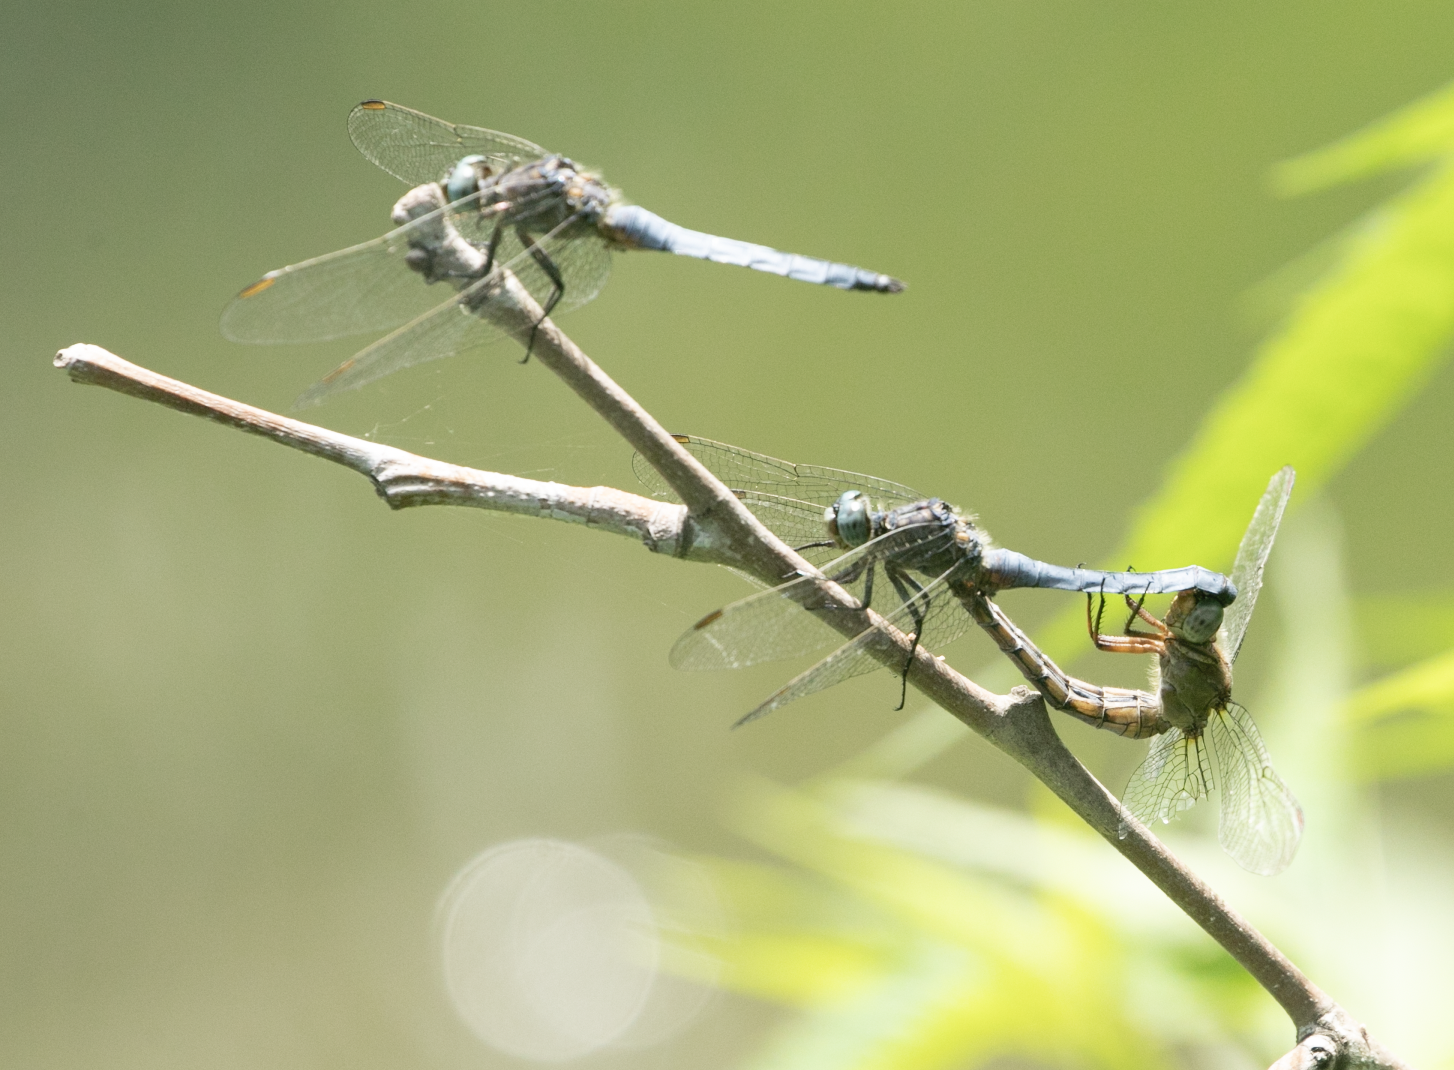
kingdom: Animalia
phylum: Arthropoda
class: Insecta
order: Odonata
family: Libellulidae
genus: Orthetrum
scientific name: Orthetrum coerulescens
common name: Keeled skimmer
